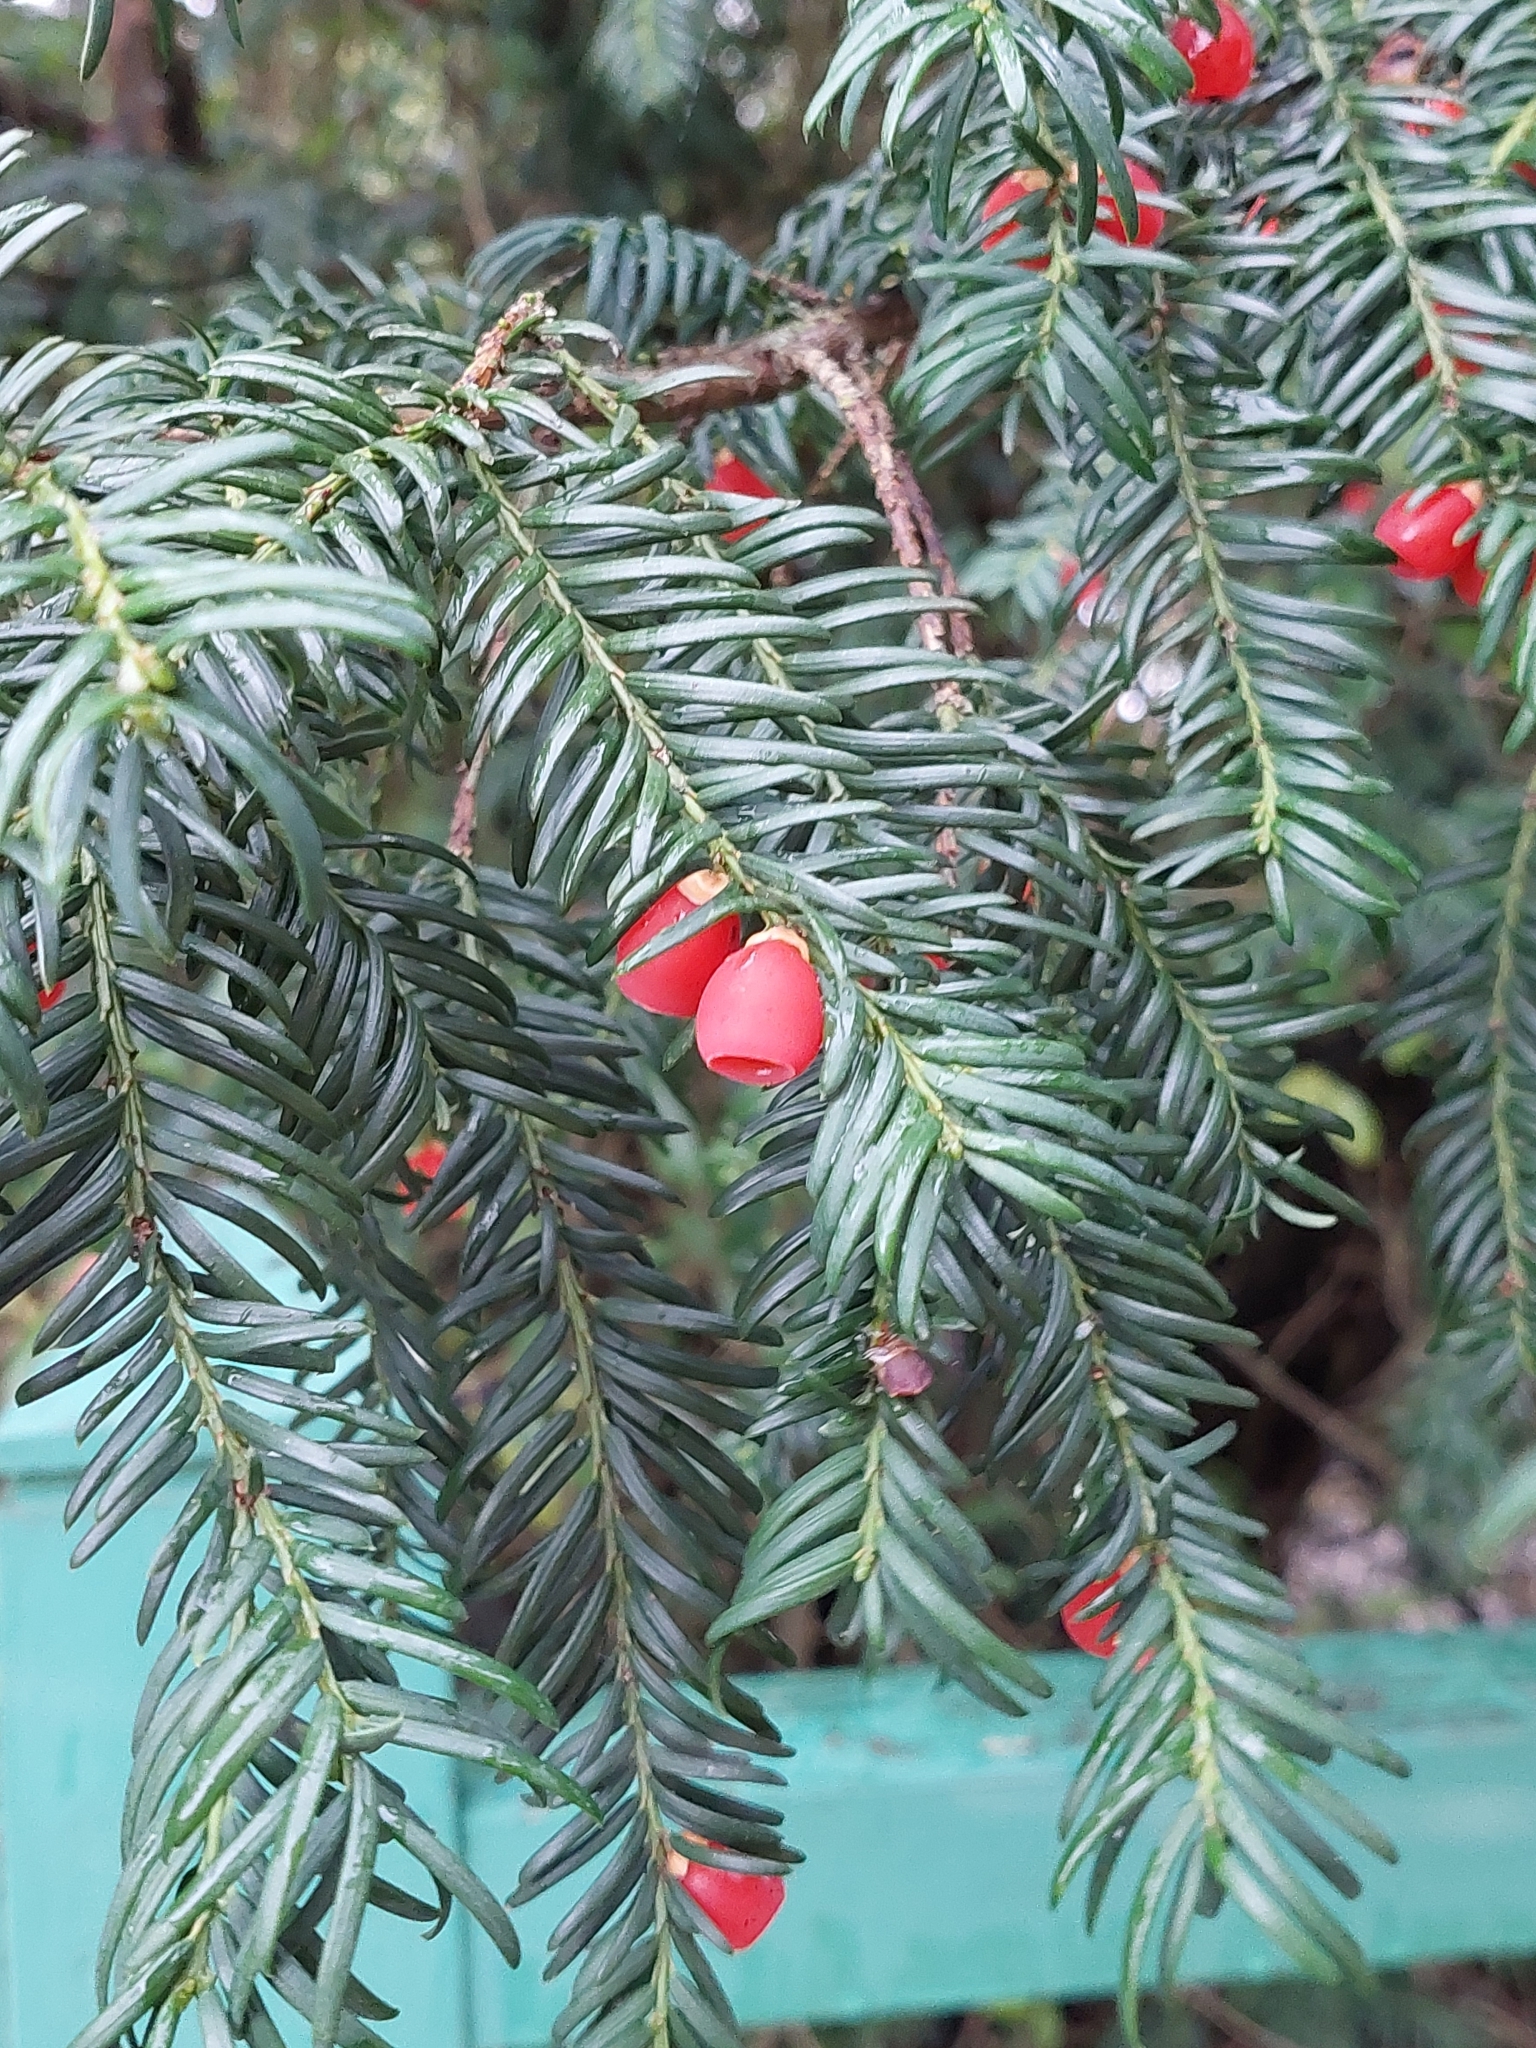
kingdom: Plantae
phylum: Tracheophyta
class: Pinopsida
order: Pinales
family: Taxaceae
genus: Taxus
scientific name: Taxus baccata
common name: Yew
